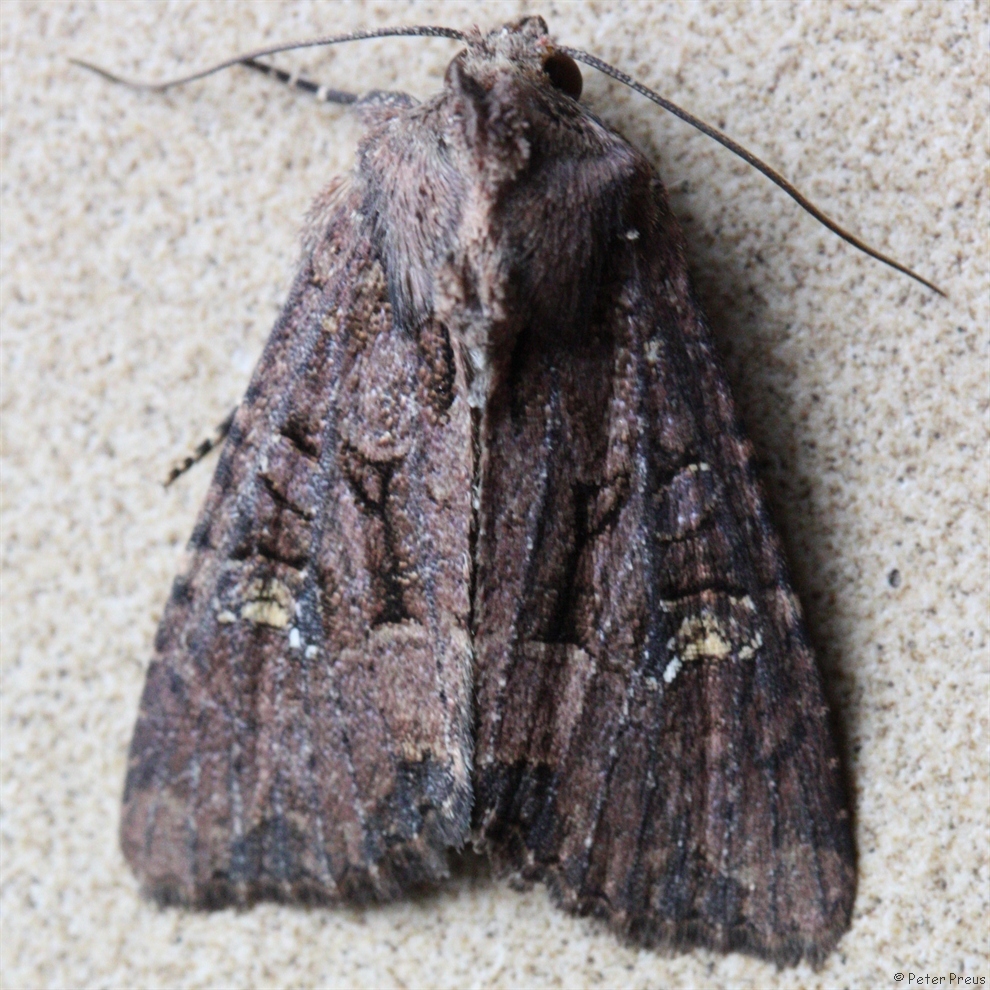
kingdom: Animalia
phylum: Arthropoda
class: Insecta
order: Lepidoptera
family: Noctuidae
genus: Mesapamea
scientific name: Mesapamea
